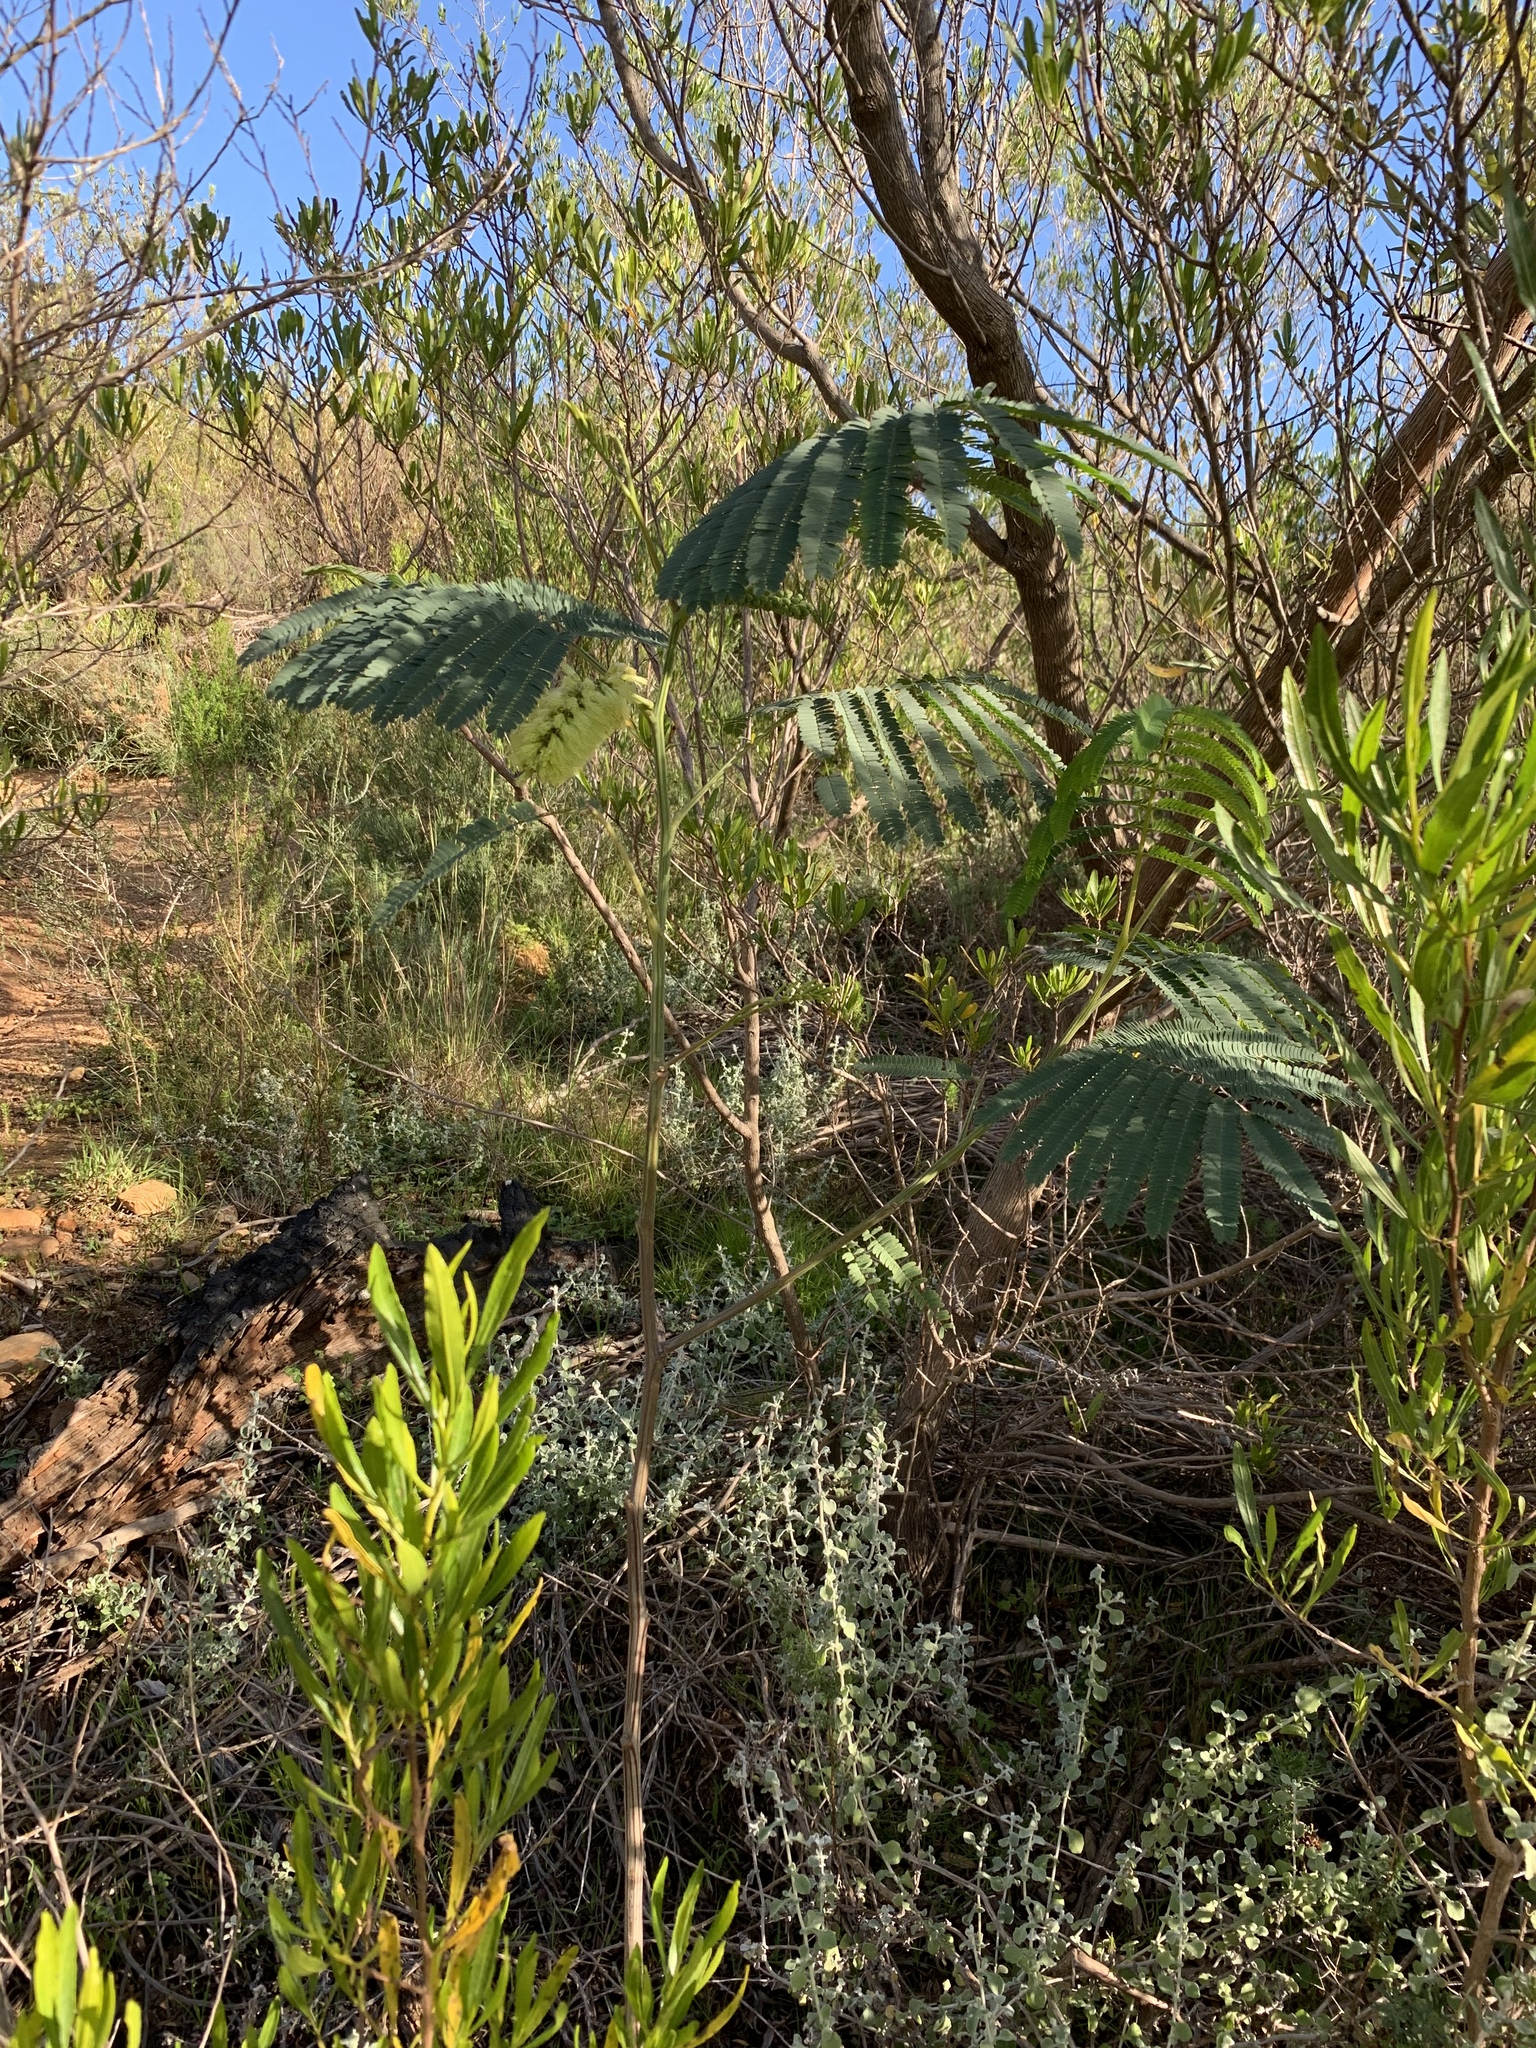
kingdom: Plantae
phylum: Tracheophyta
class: Magnoliopsida
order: Fabales
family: Fabaceae
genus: Paraserianthes
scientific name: Paraserianthes lophantha
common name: Plume albizia
